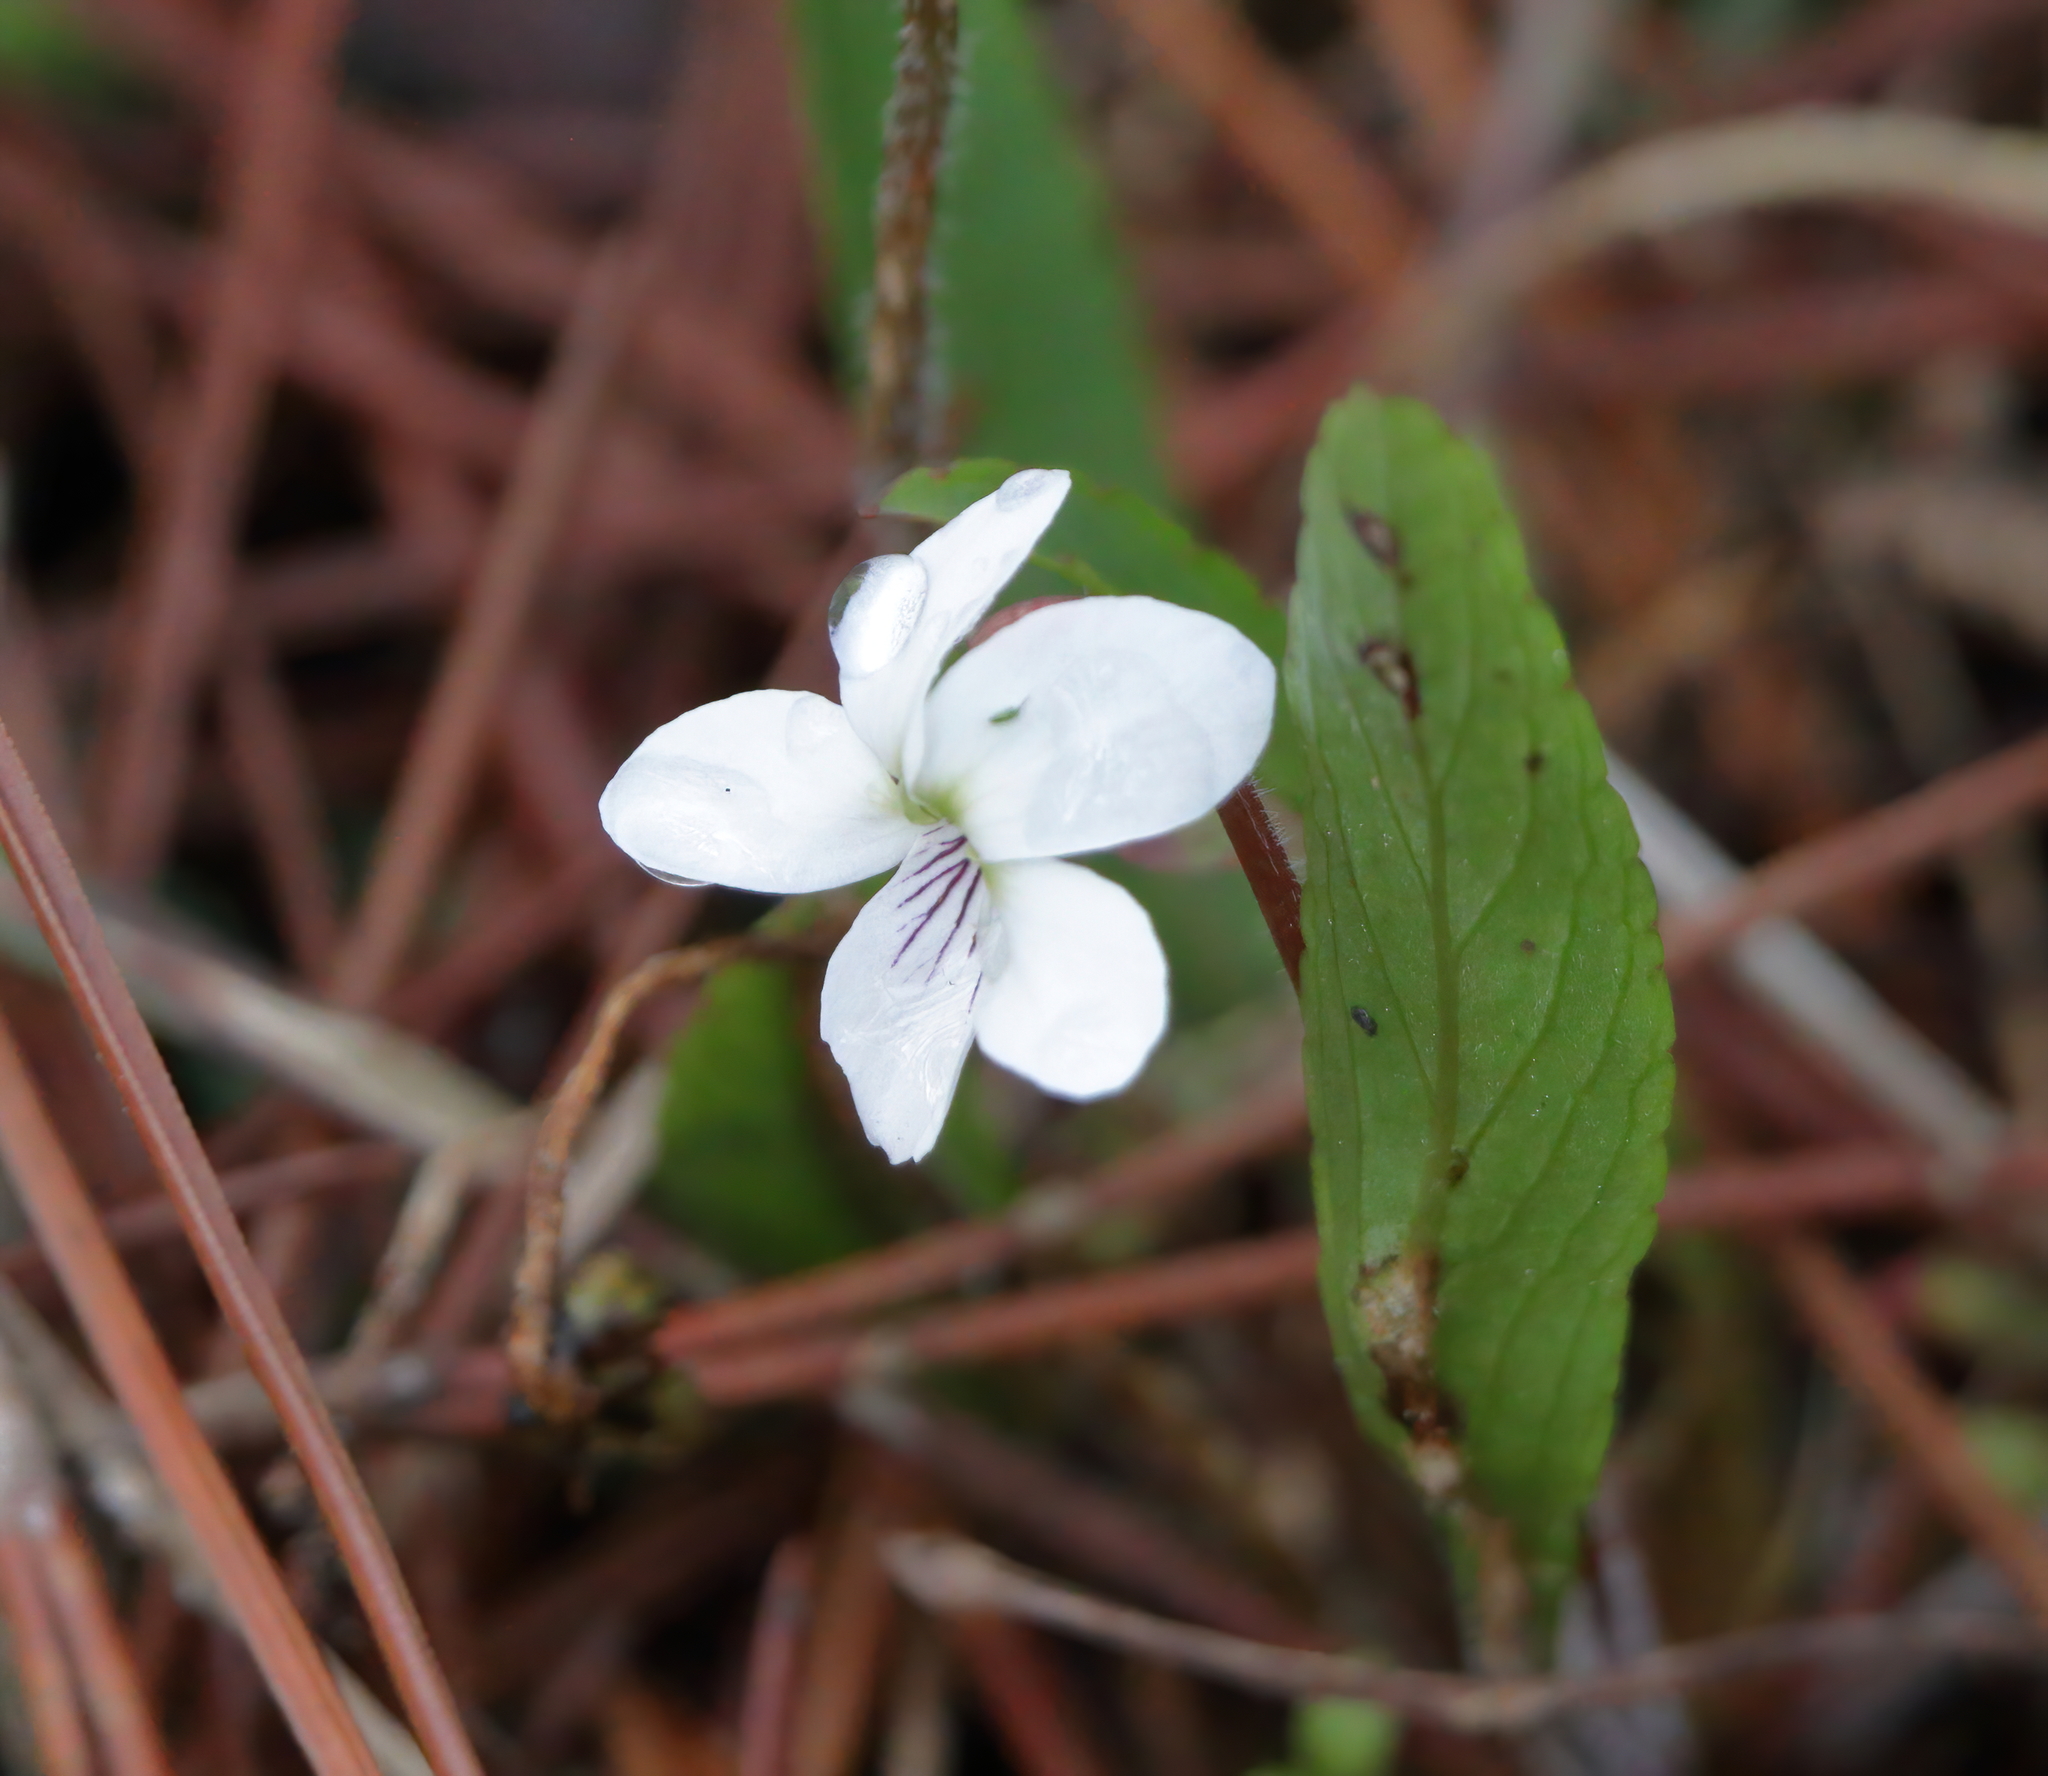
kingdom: Plantae
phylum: Tracheophyta
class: Magnoliopsida
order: Malpighiales
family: Violaceae
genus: Viola
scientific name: Viola lanceolata
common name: Bog white violet
